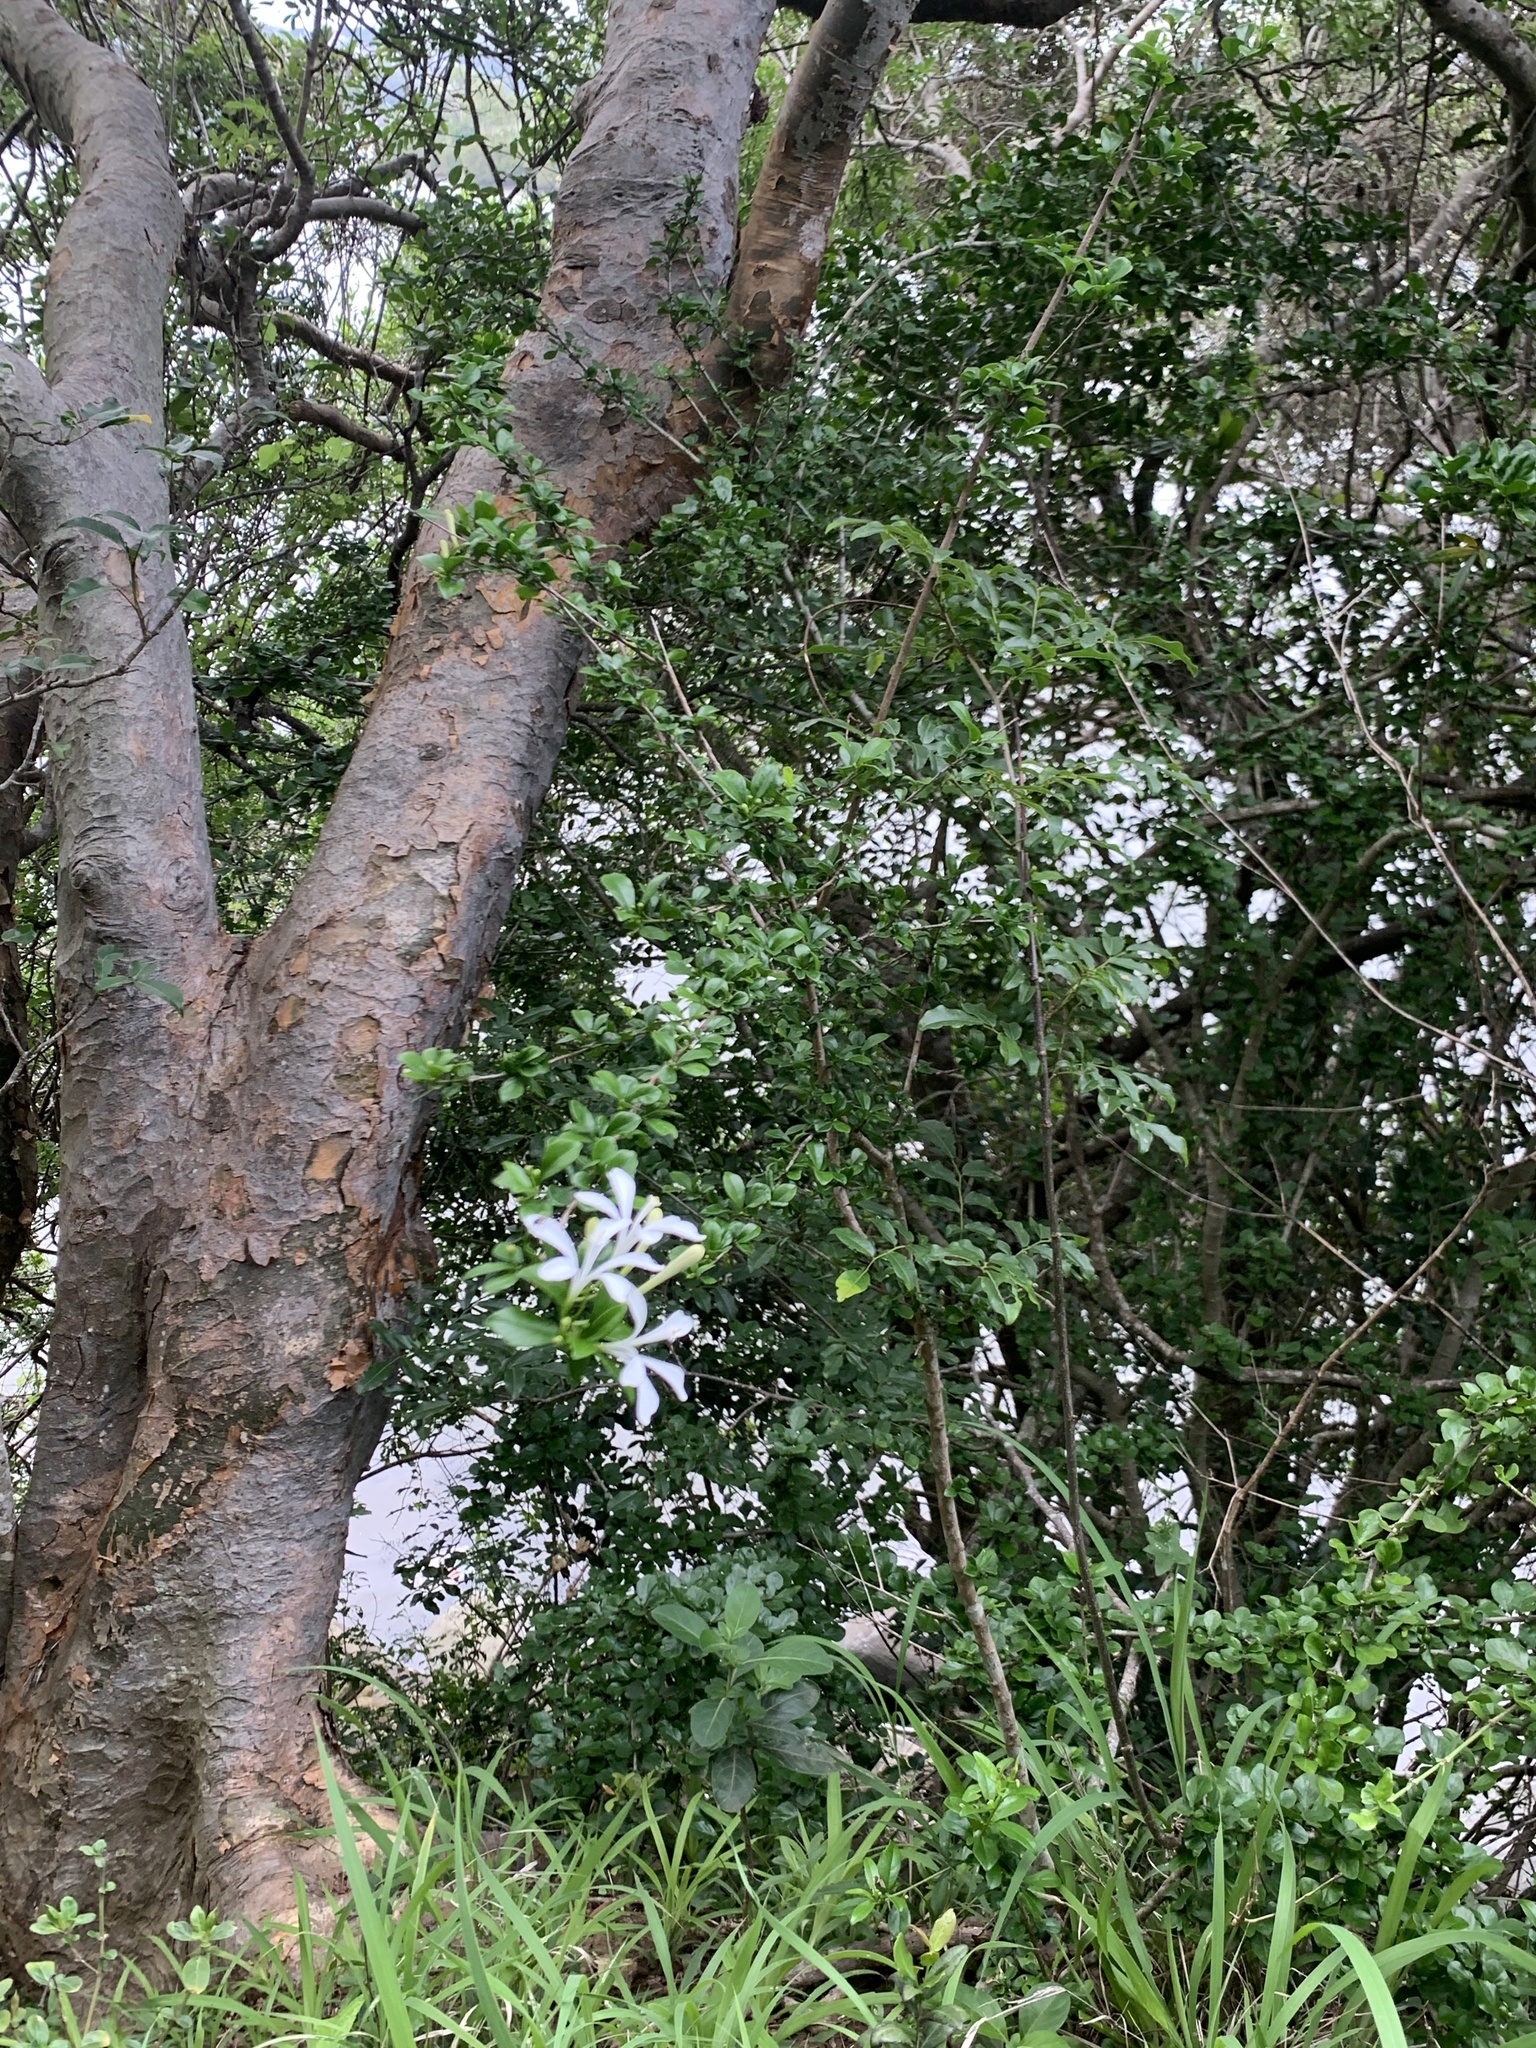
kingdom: Plantae
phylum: Tracheophyta
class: Magnoliopsida
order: Sapindales
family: Meliaceae
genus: Turraea
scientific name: Turraea obtusifolia
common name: Small honeysuckle tree
